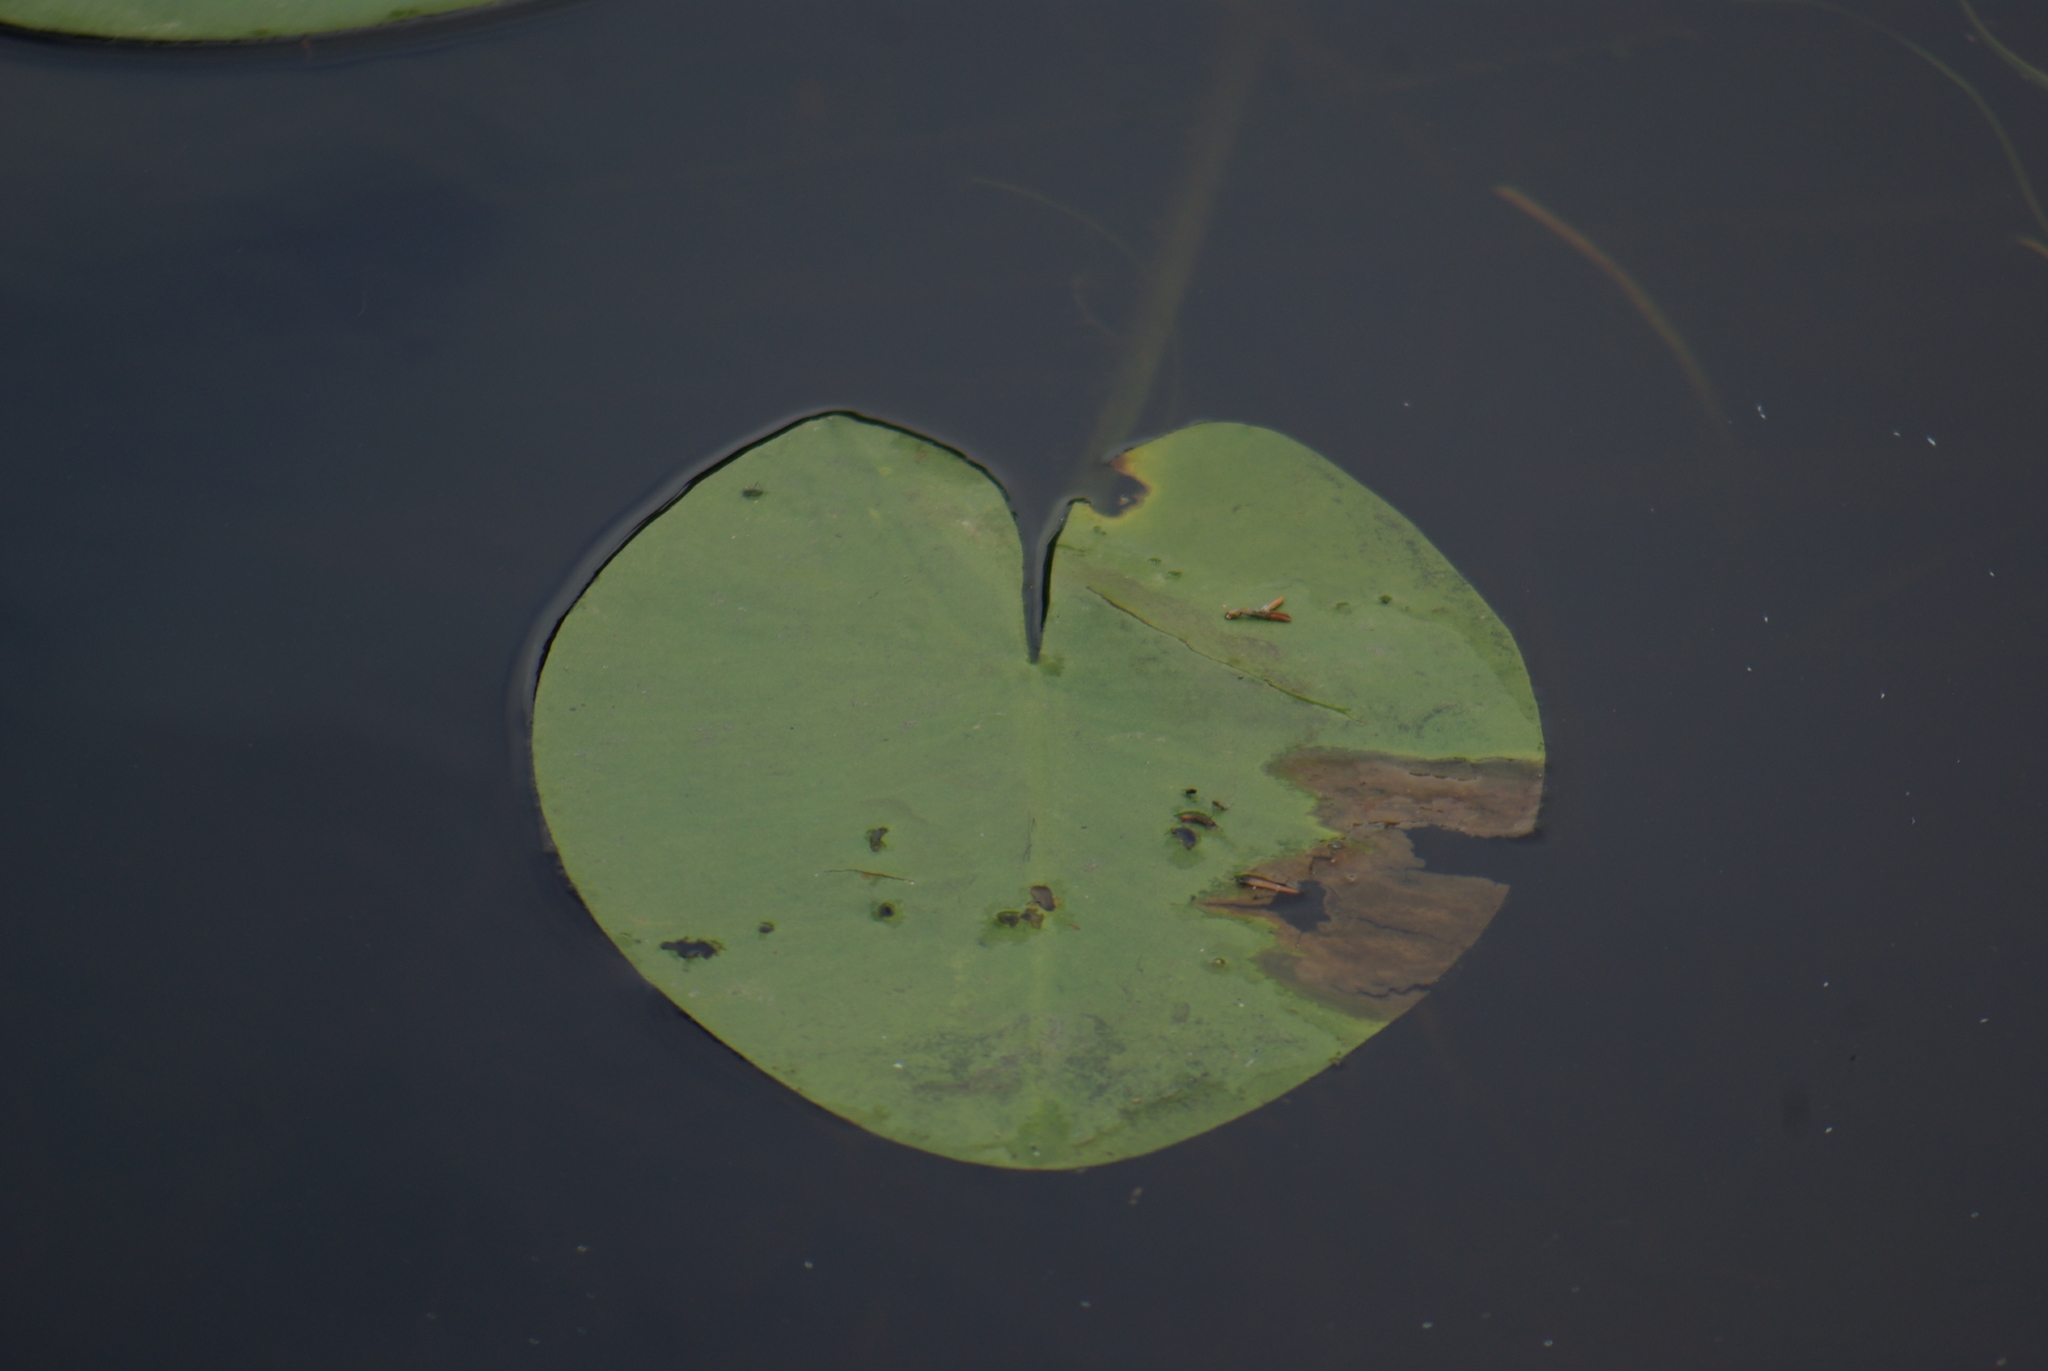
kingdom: Plantae
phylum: Tracheophyta
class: Magnoliopsida
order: Nymphaeales
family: Nymphaeaceae
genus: Nuphar
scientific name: Nuphar variegata
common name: Beaver-root
